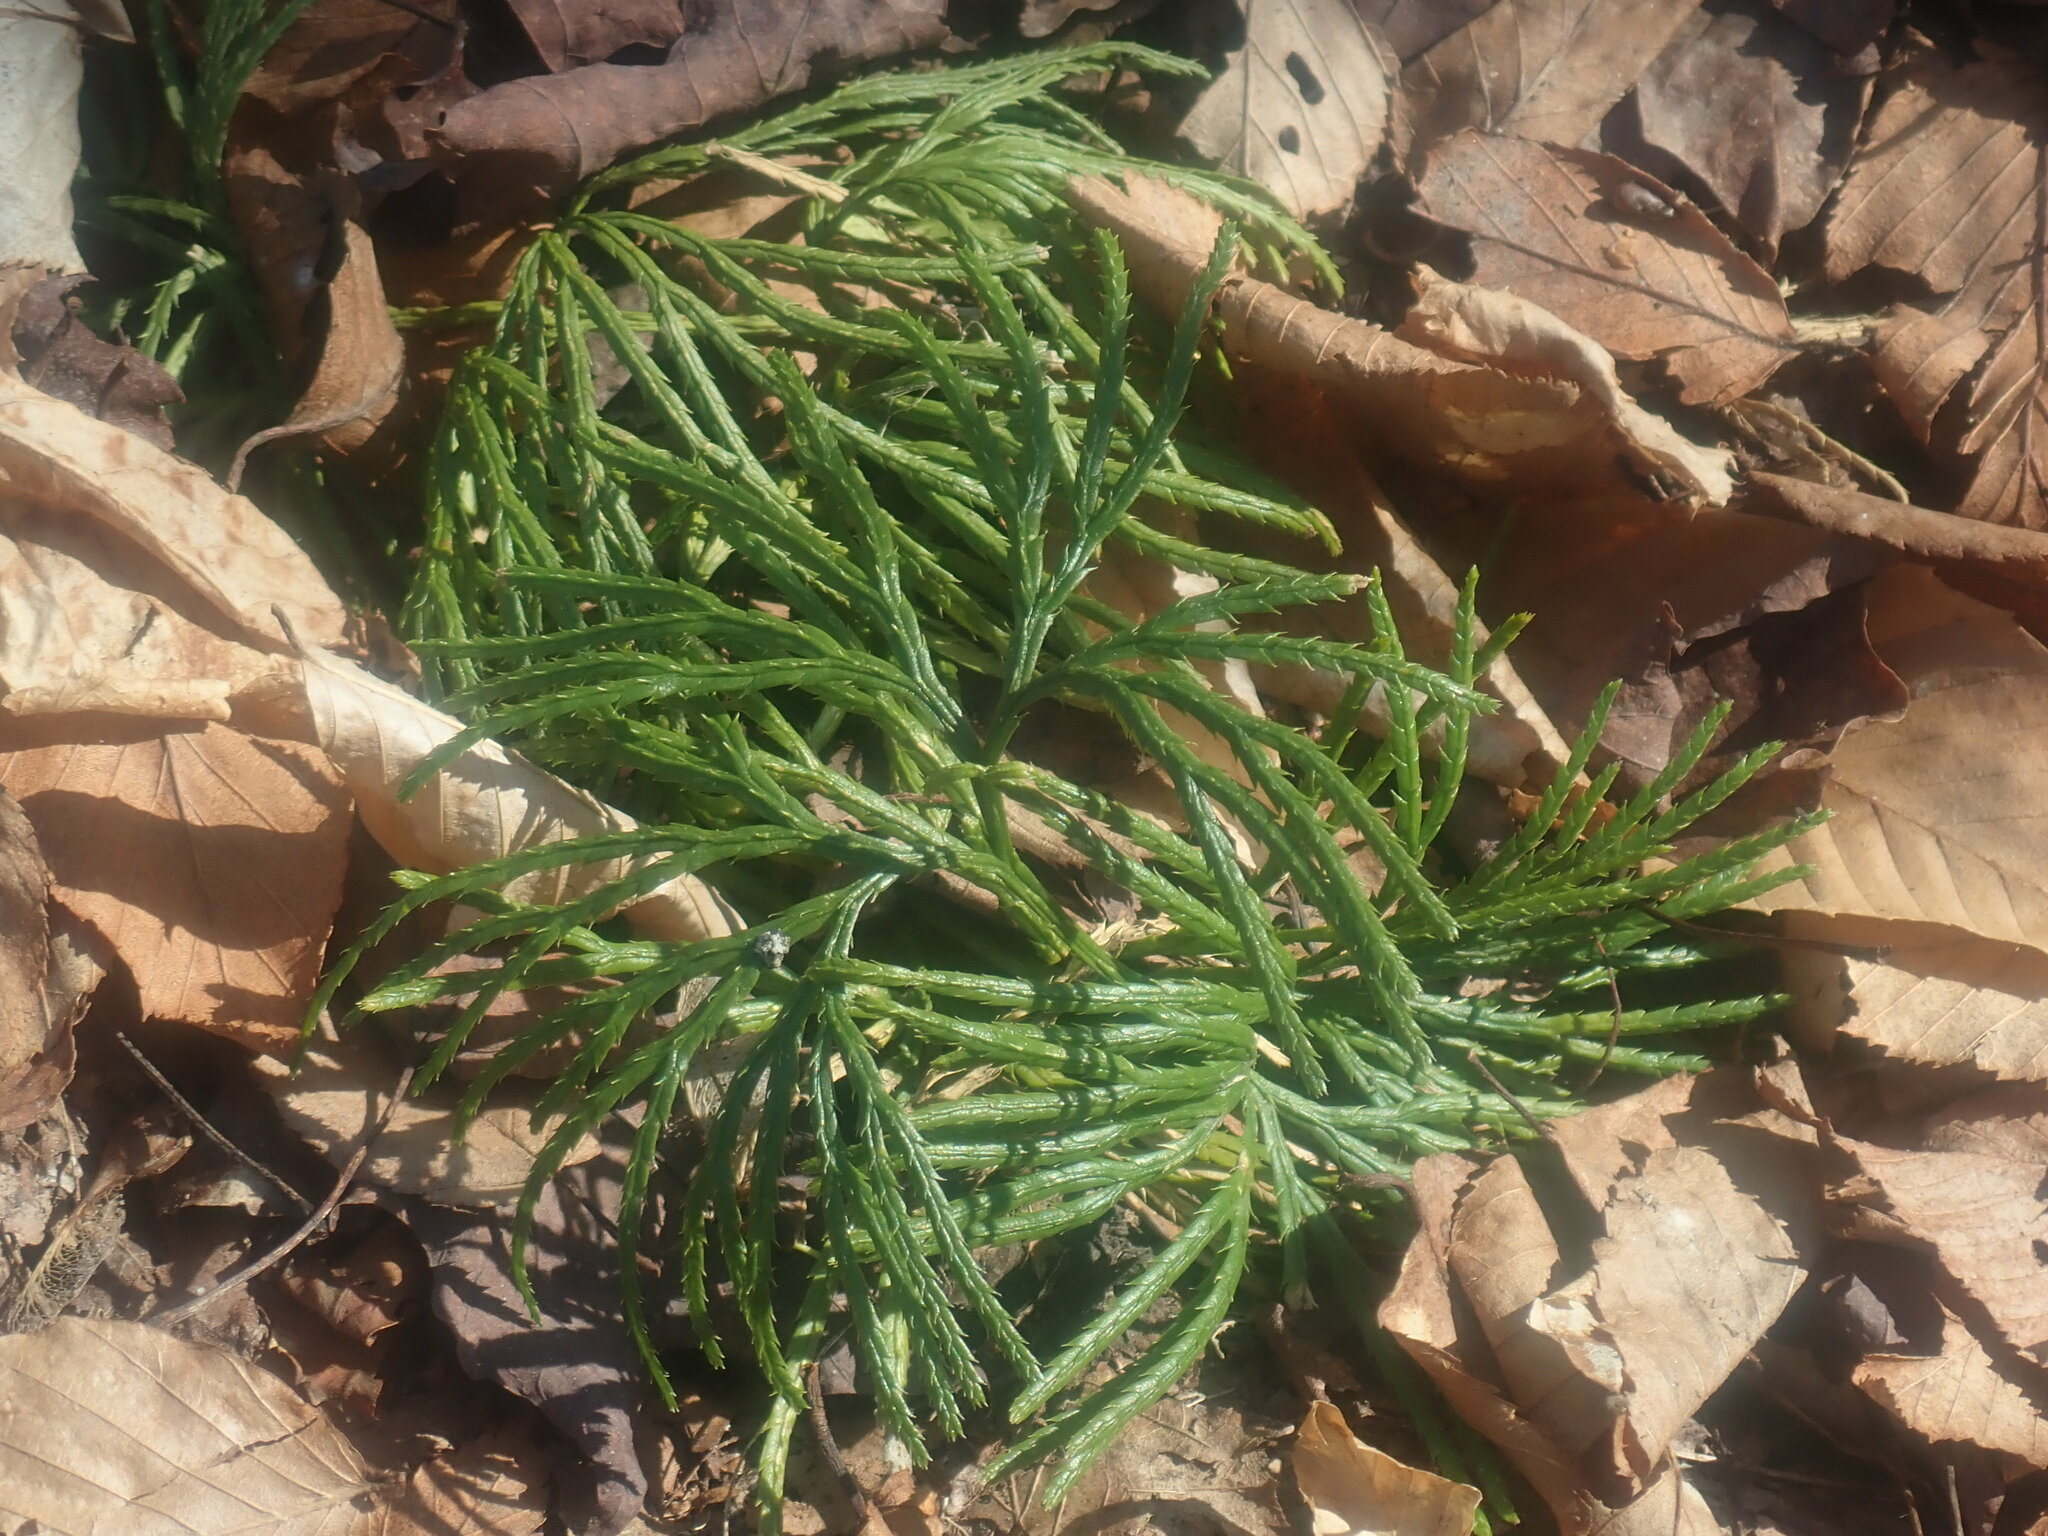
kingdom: Plantae
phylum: Tracheophyta
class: Lycopodiopsida
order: Lycopodiales
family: Lycopodiaceae
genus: Diphasiastrum
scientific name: Diphasiastrum digitatum
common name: Southern running-pine
